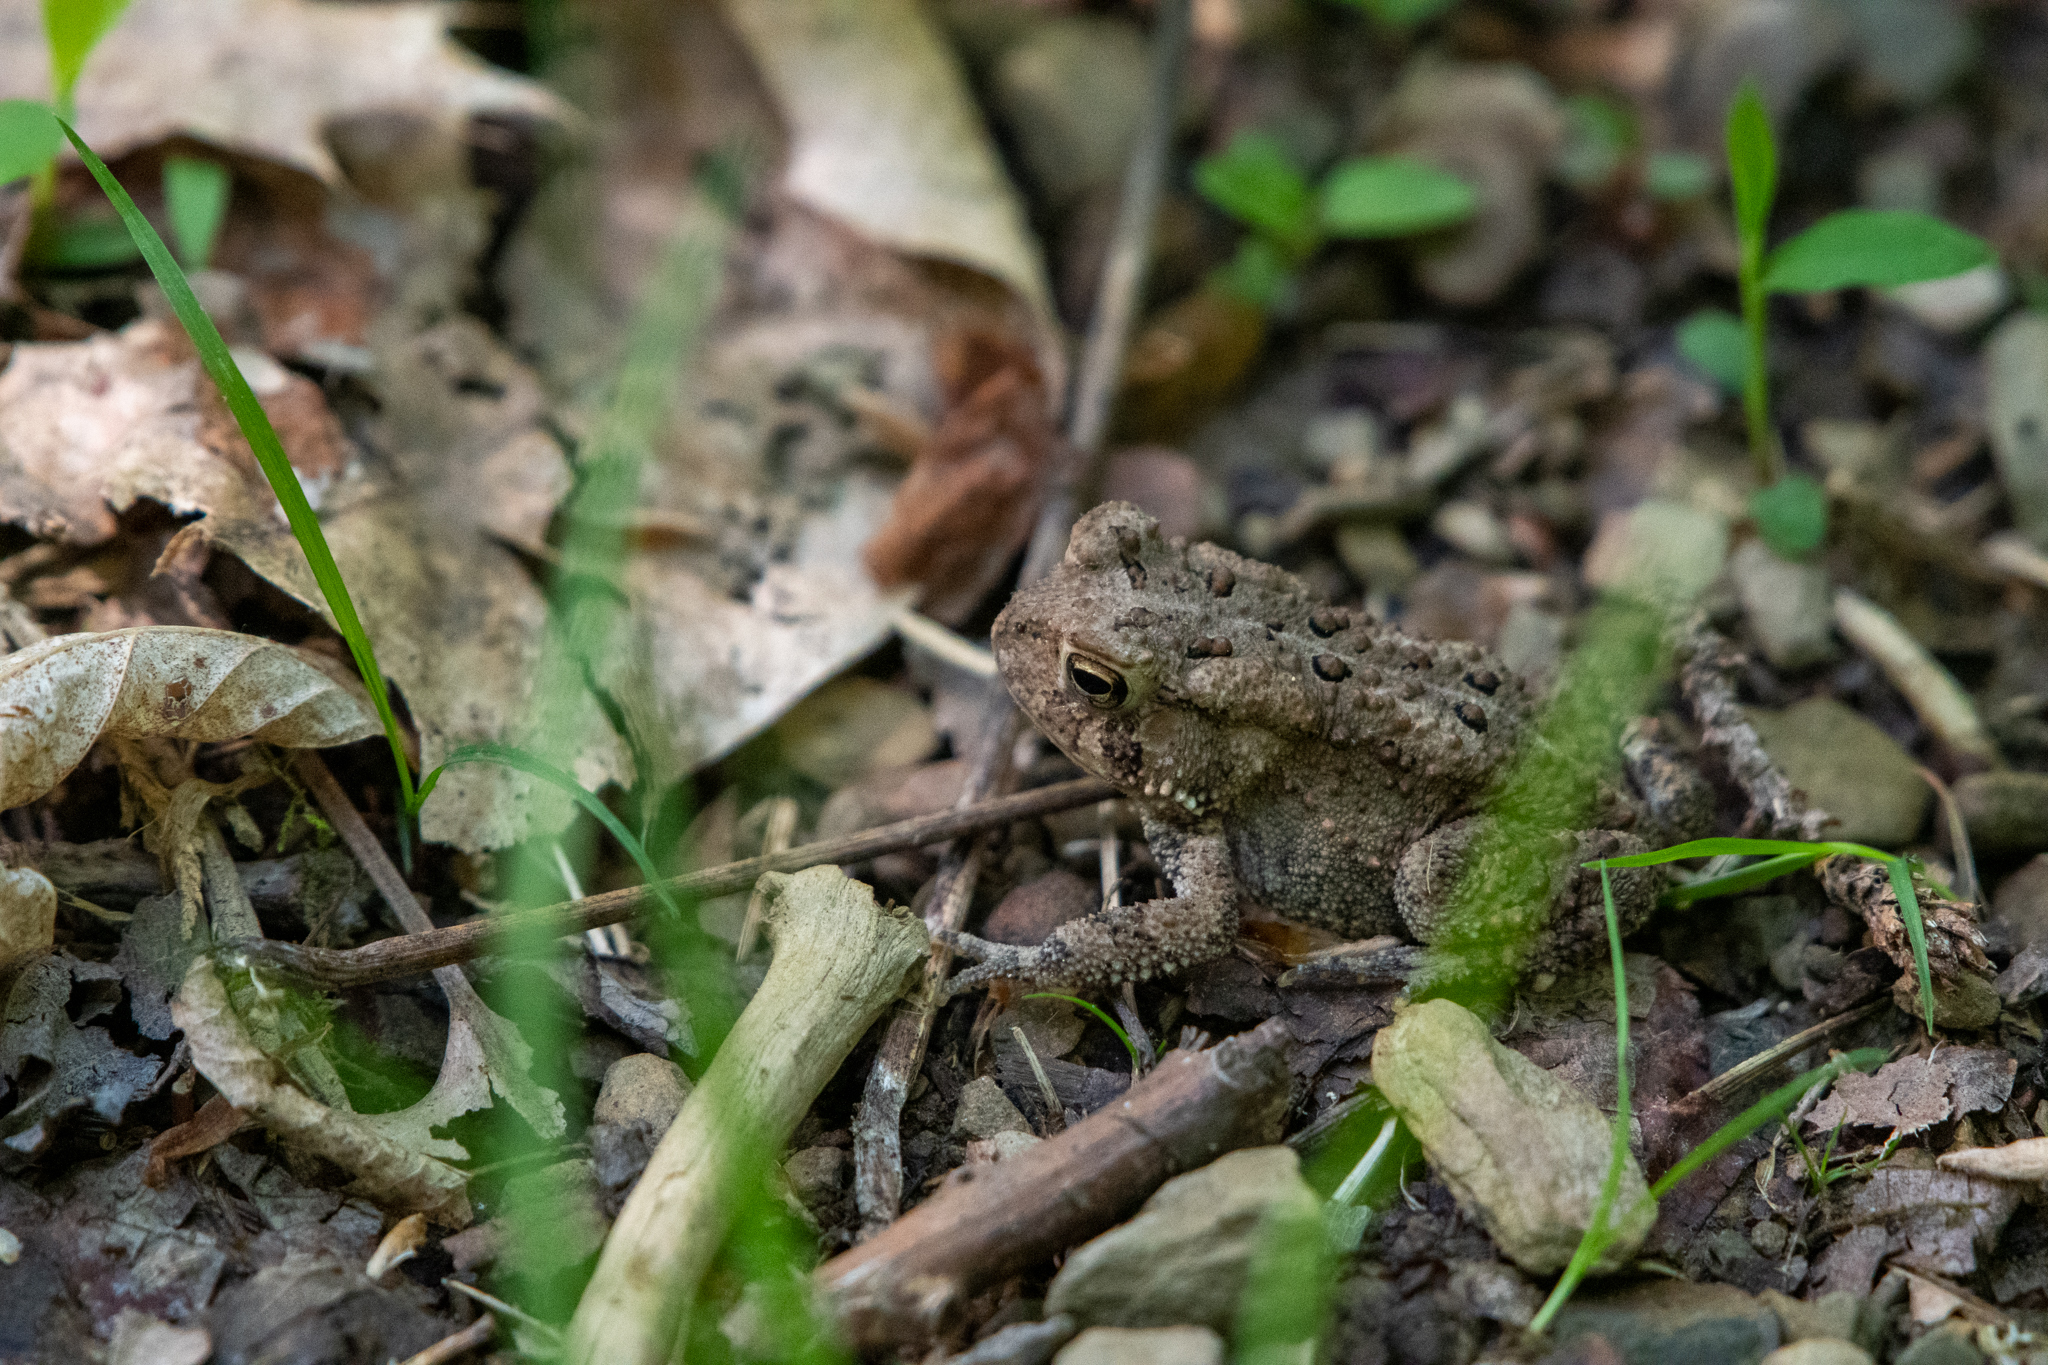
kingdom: Animalia
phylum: Chordata
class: Amphibia
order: Anura
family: Bufonidae
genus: Anaxyrus
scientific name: Anaxyrus americanus
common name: American toad
